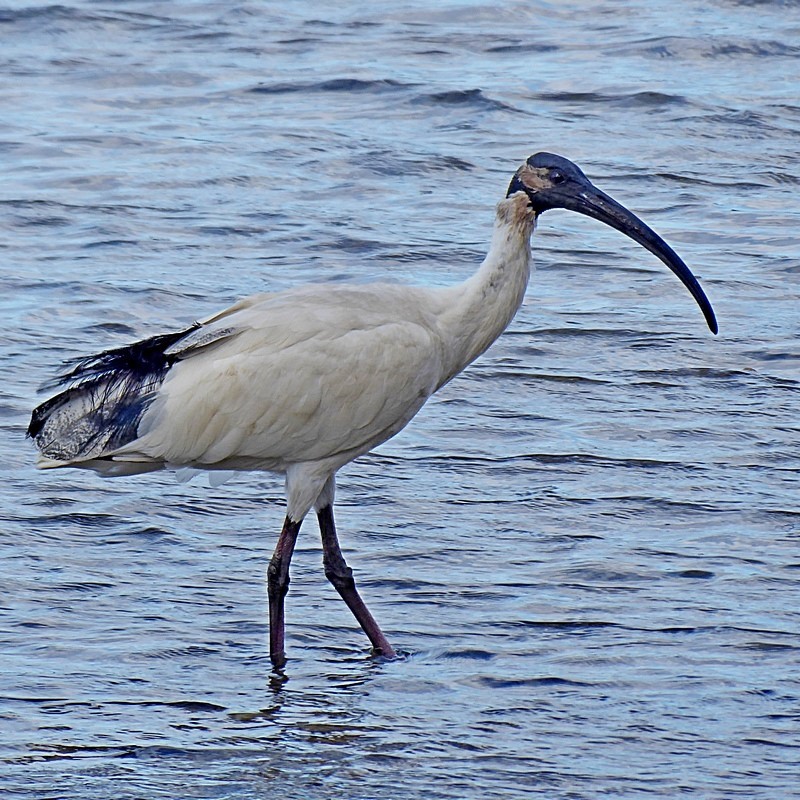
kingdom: Animalia
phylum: Chordata
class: Aves
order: Pelecaniformes
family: Threskiornithidae
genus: Threskiornis
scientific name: Threskiornis molucca
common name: Australian white ibis
